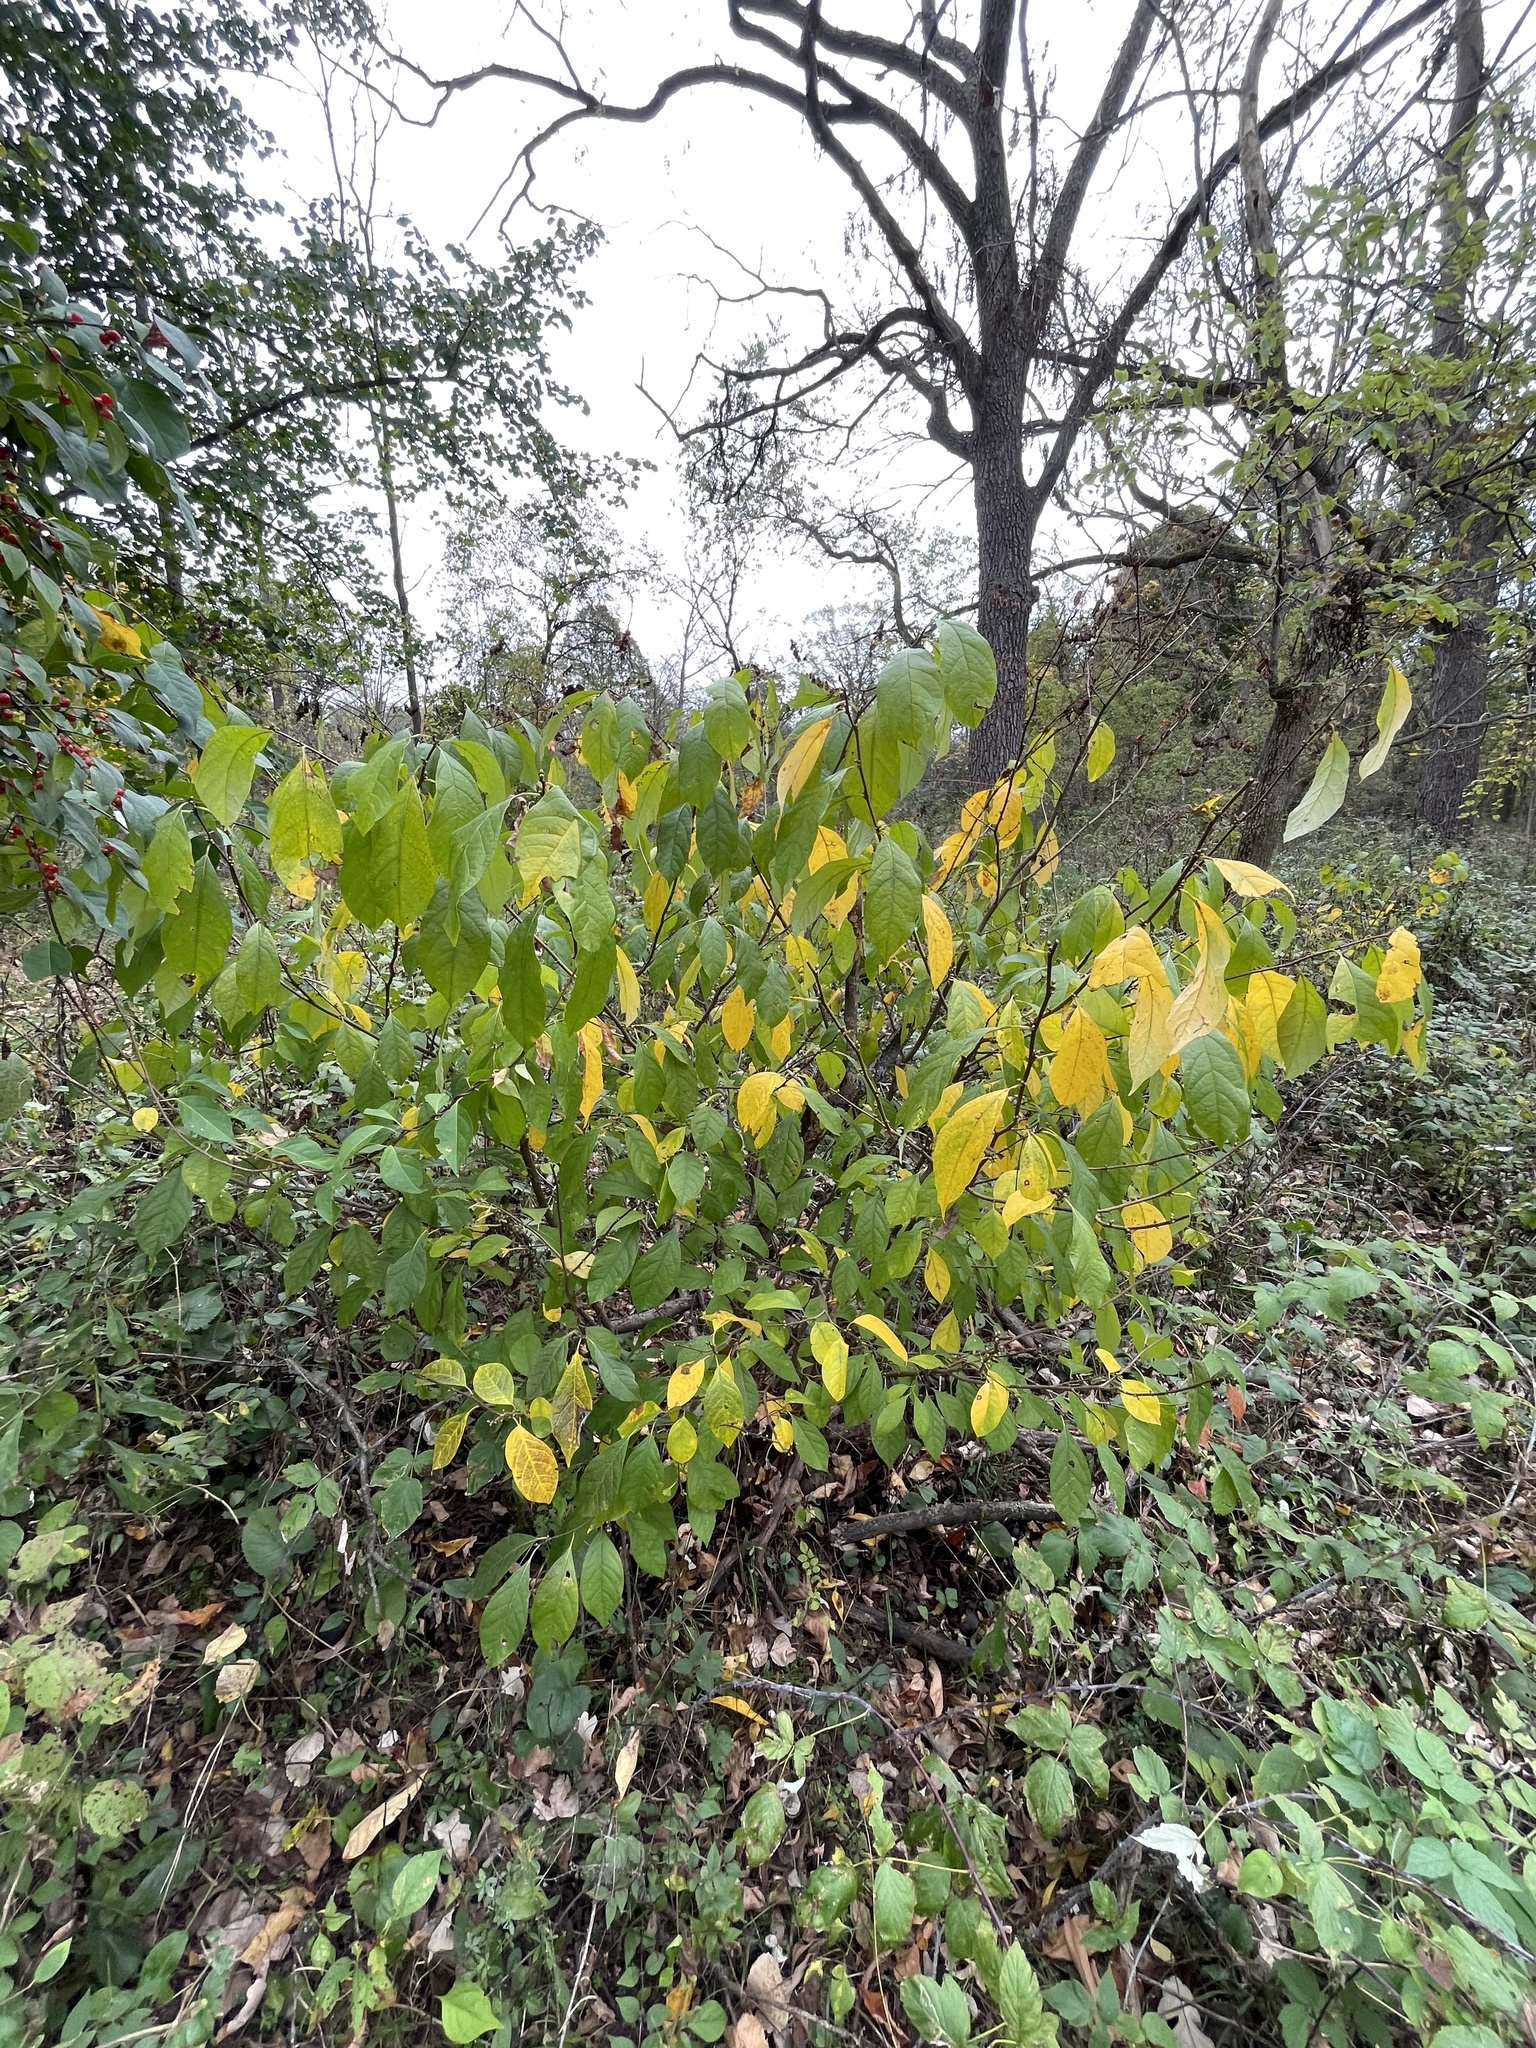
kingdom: Plantae
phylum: Tracheophyta
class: Magnoliopsida
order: Laurales
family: Lauraceae
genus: Lindera
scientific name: Lindera benzoin
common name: Spicebush
